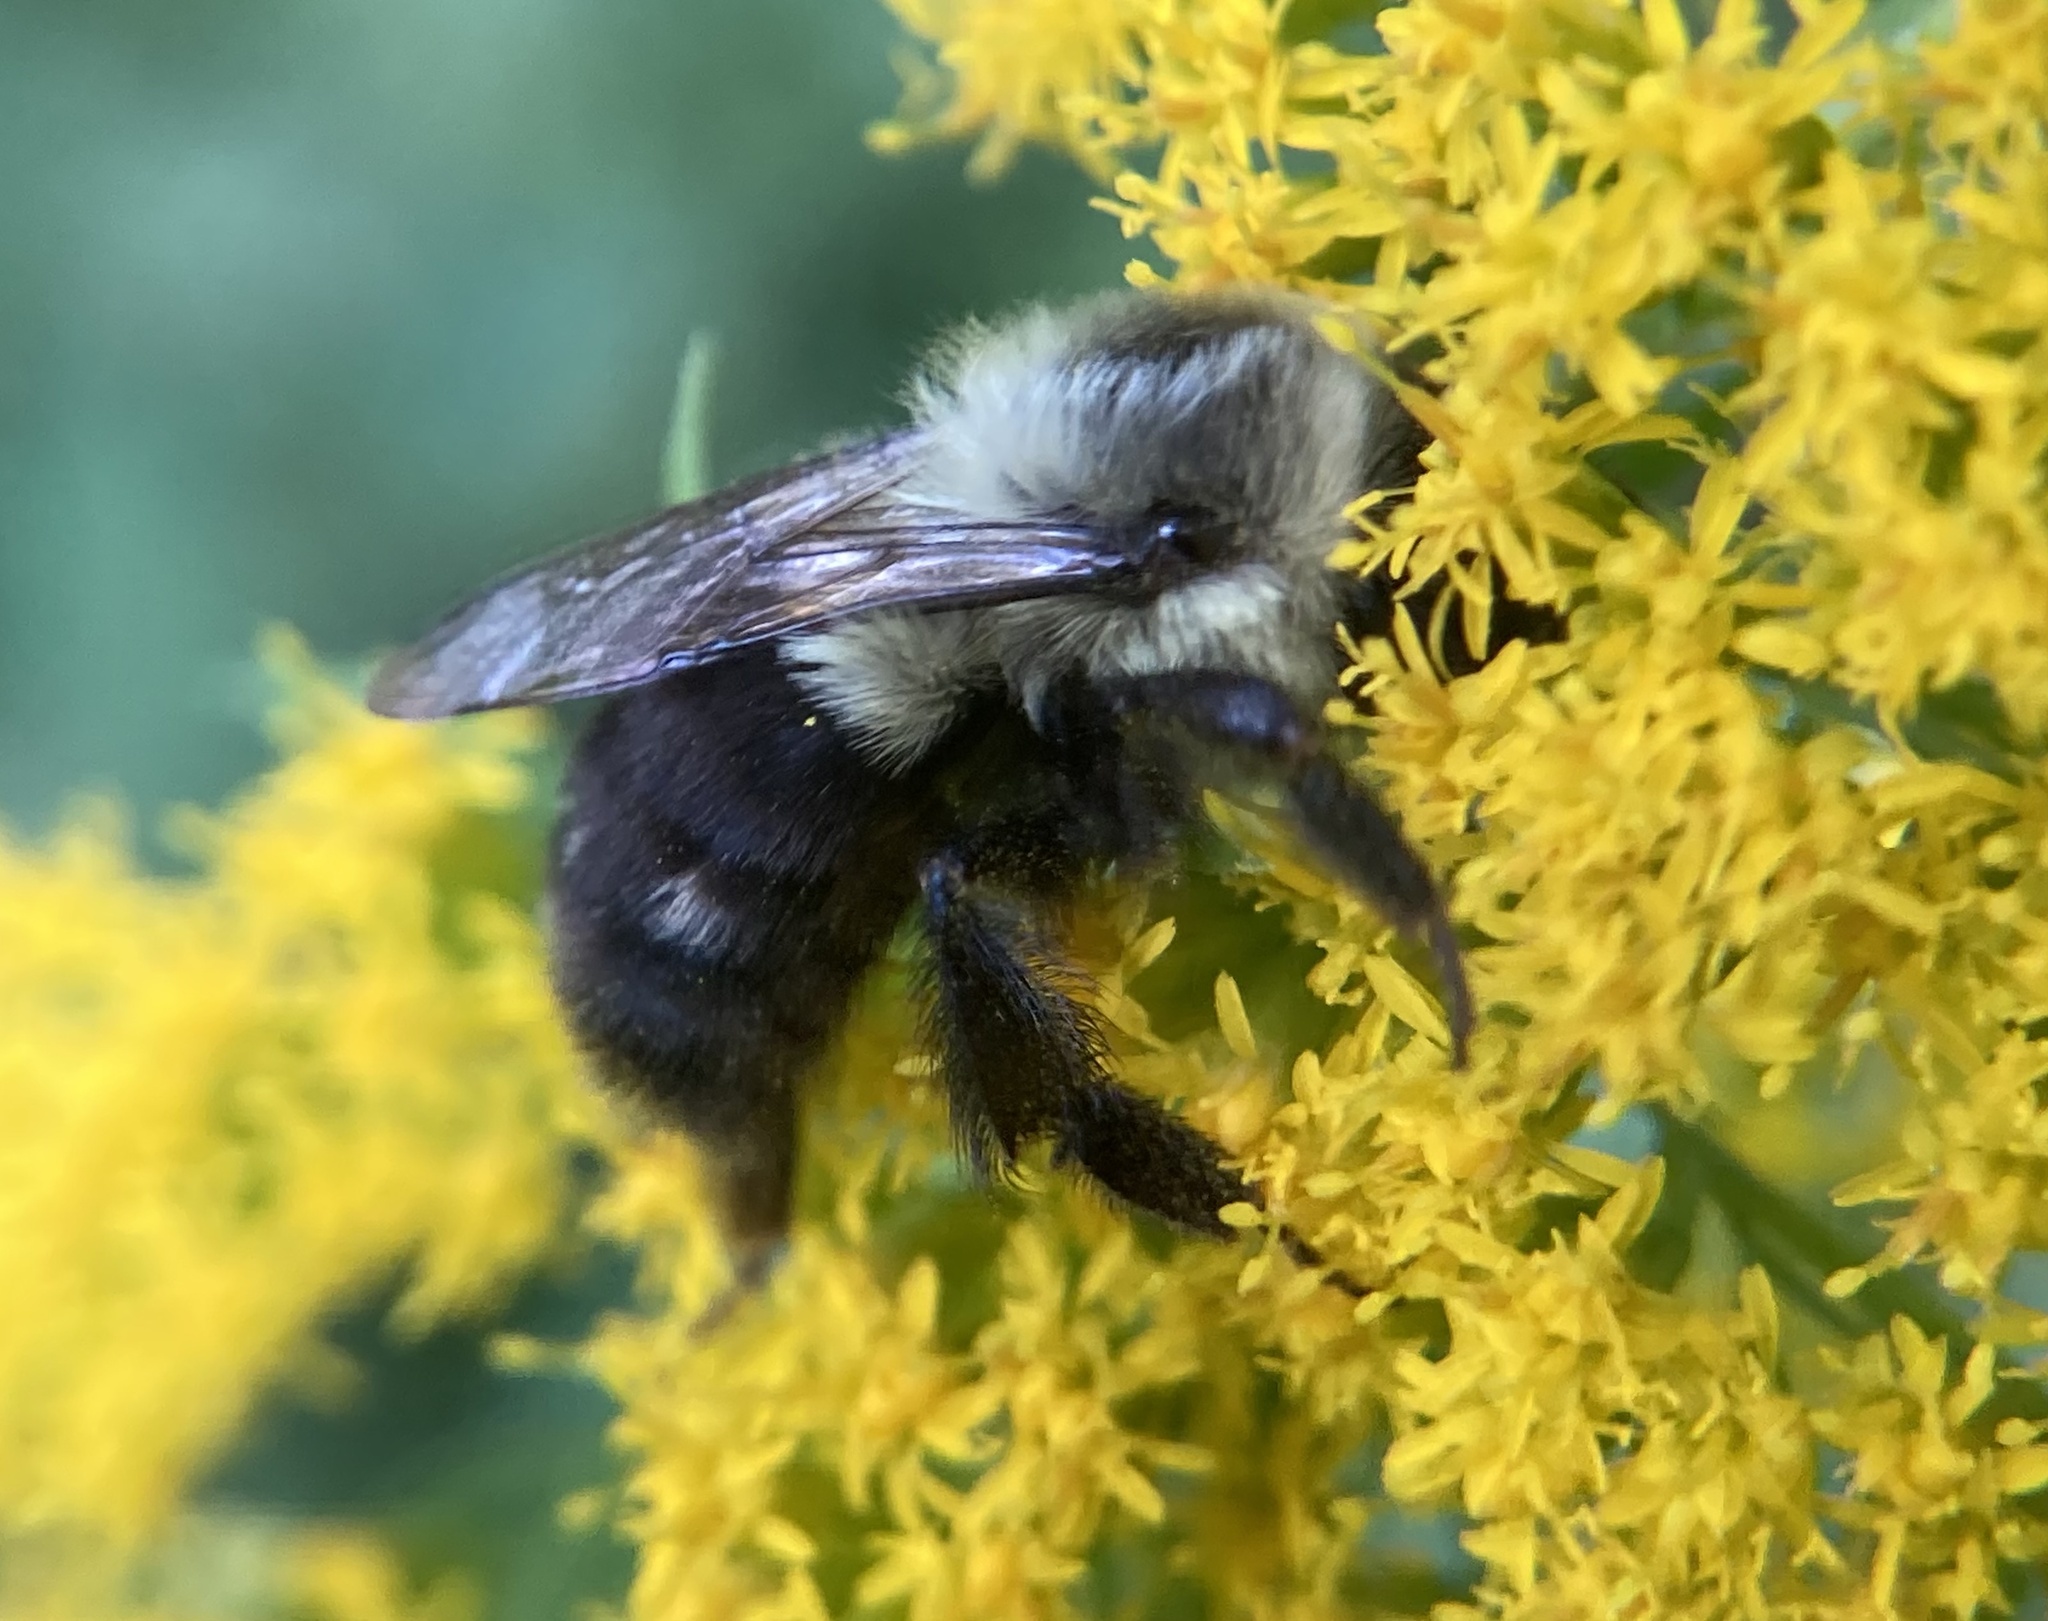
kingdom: Animalia
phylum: Arthropoda
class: Insecta
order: Hymenoptera
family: Apidae
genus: Bombus
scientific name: Bombus impatiens
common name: Common eastern bumble bee
